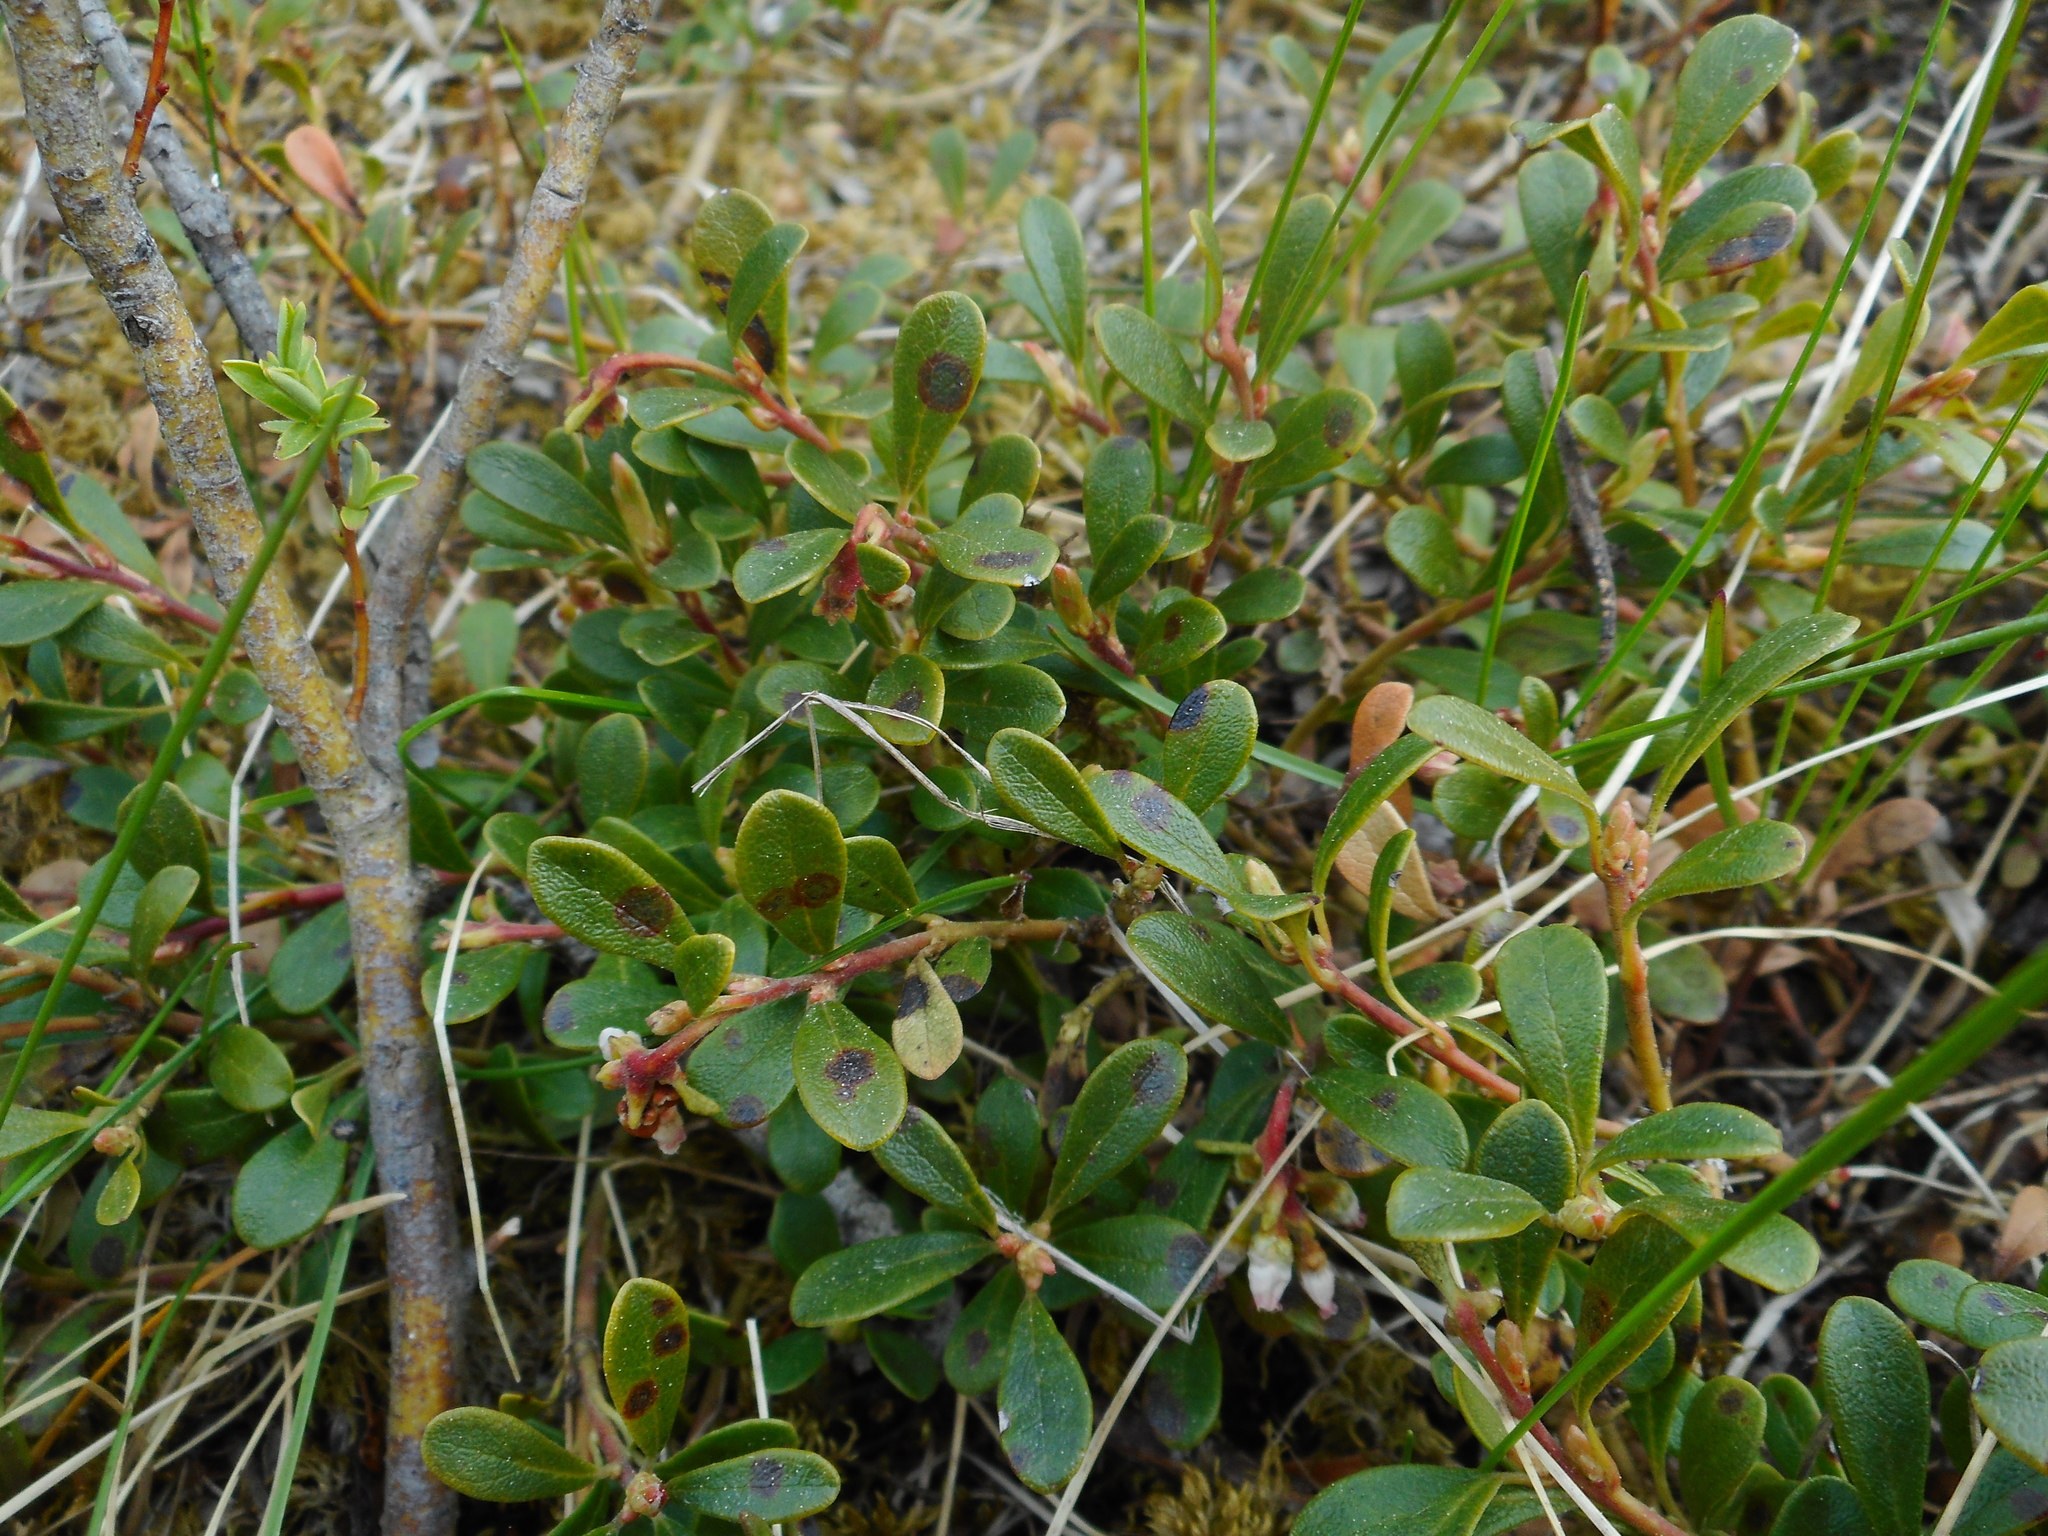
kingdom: Plantae
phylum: Tracheophyta
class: Magnoliopsida
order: Ericales
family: Ericaceae
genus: Arctostaphylos
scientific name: Arctostaphylos uva-ursi
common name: Bearberry
